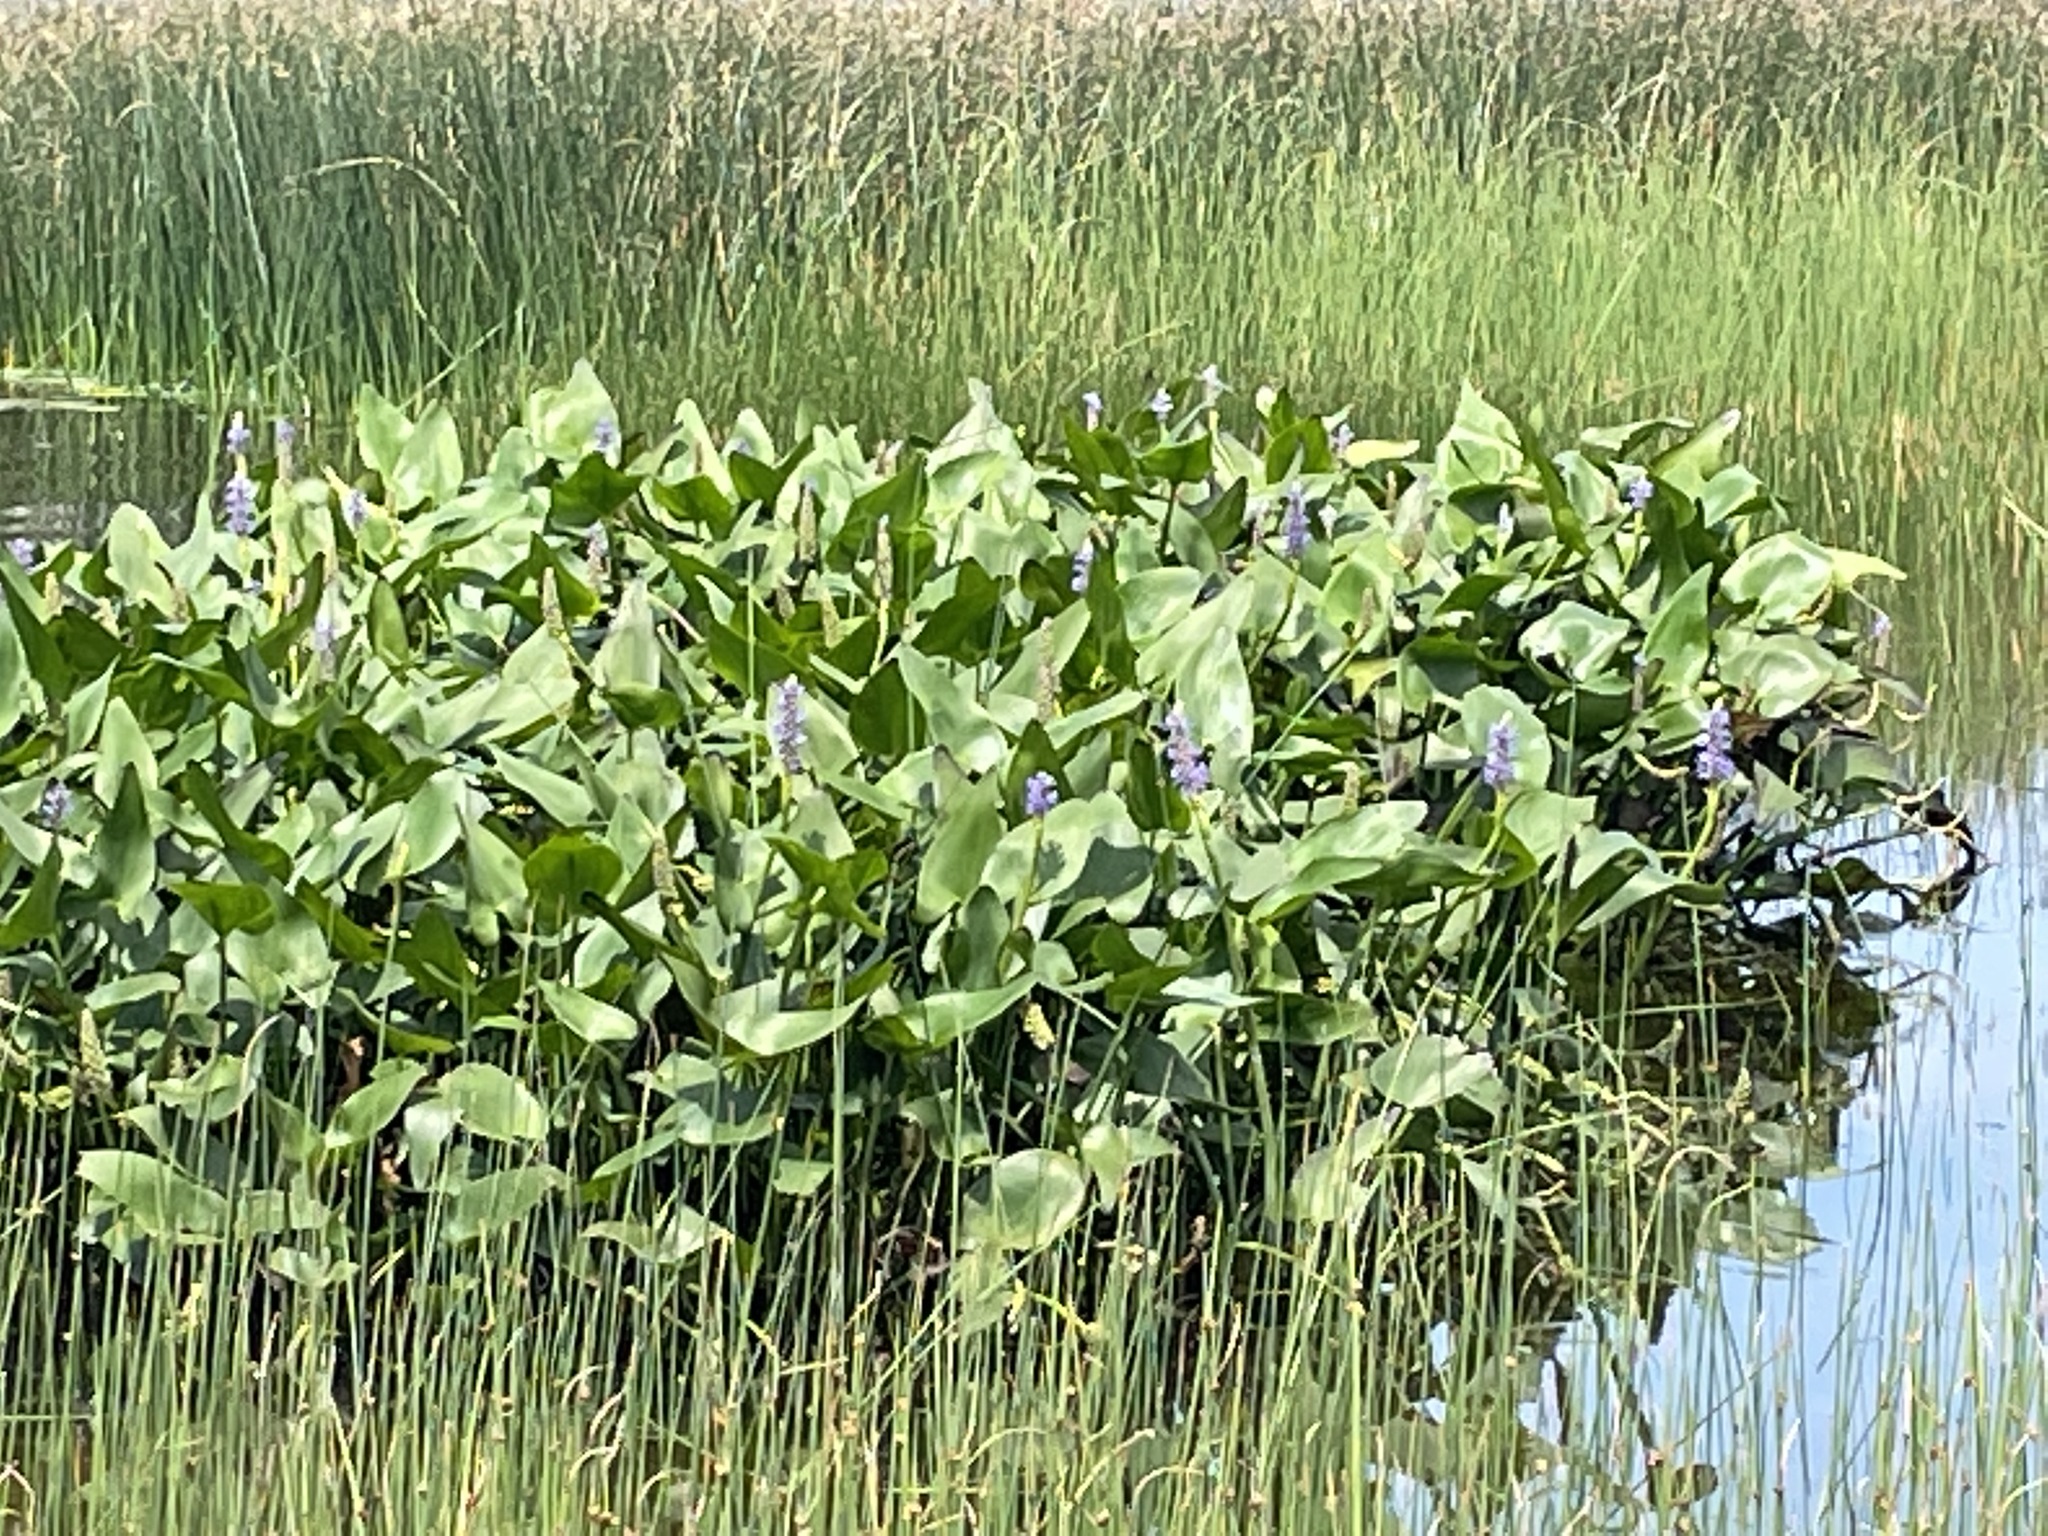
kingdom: Plantae
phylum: Tracheophyta
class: Liliopsida
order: Commelinales
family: Pontederiaceae
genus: Pontederia
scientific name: Pontederia cordata
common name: Pickerelweed
